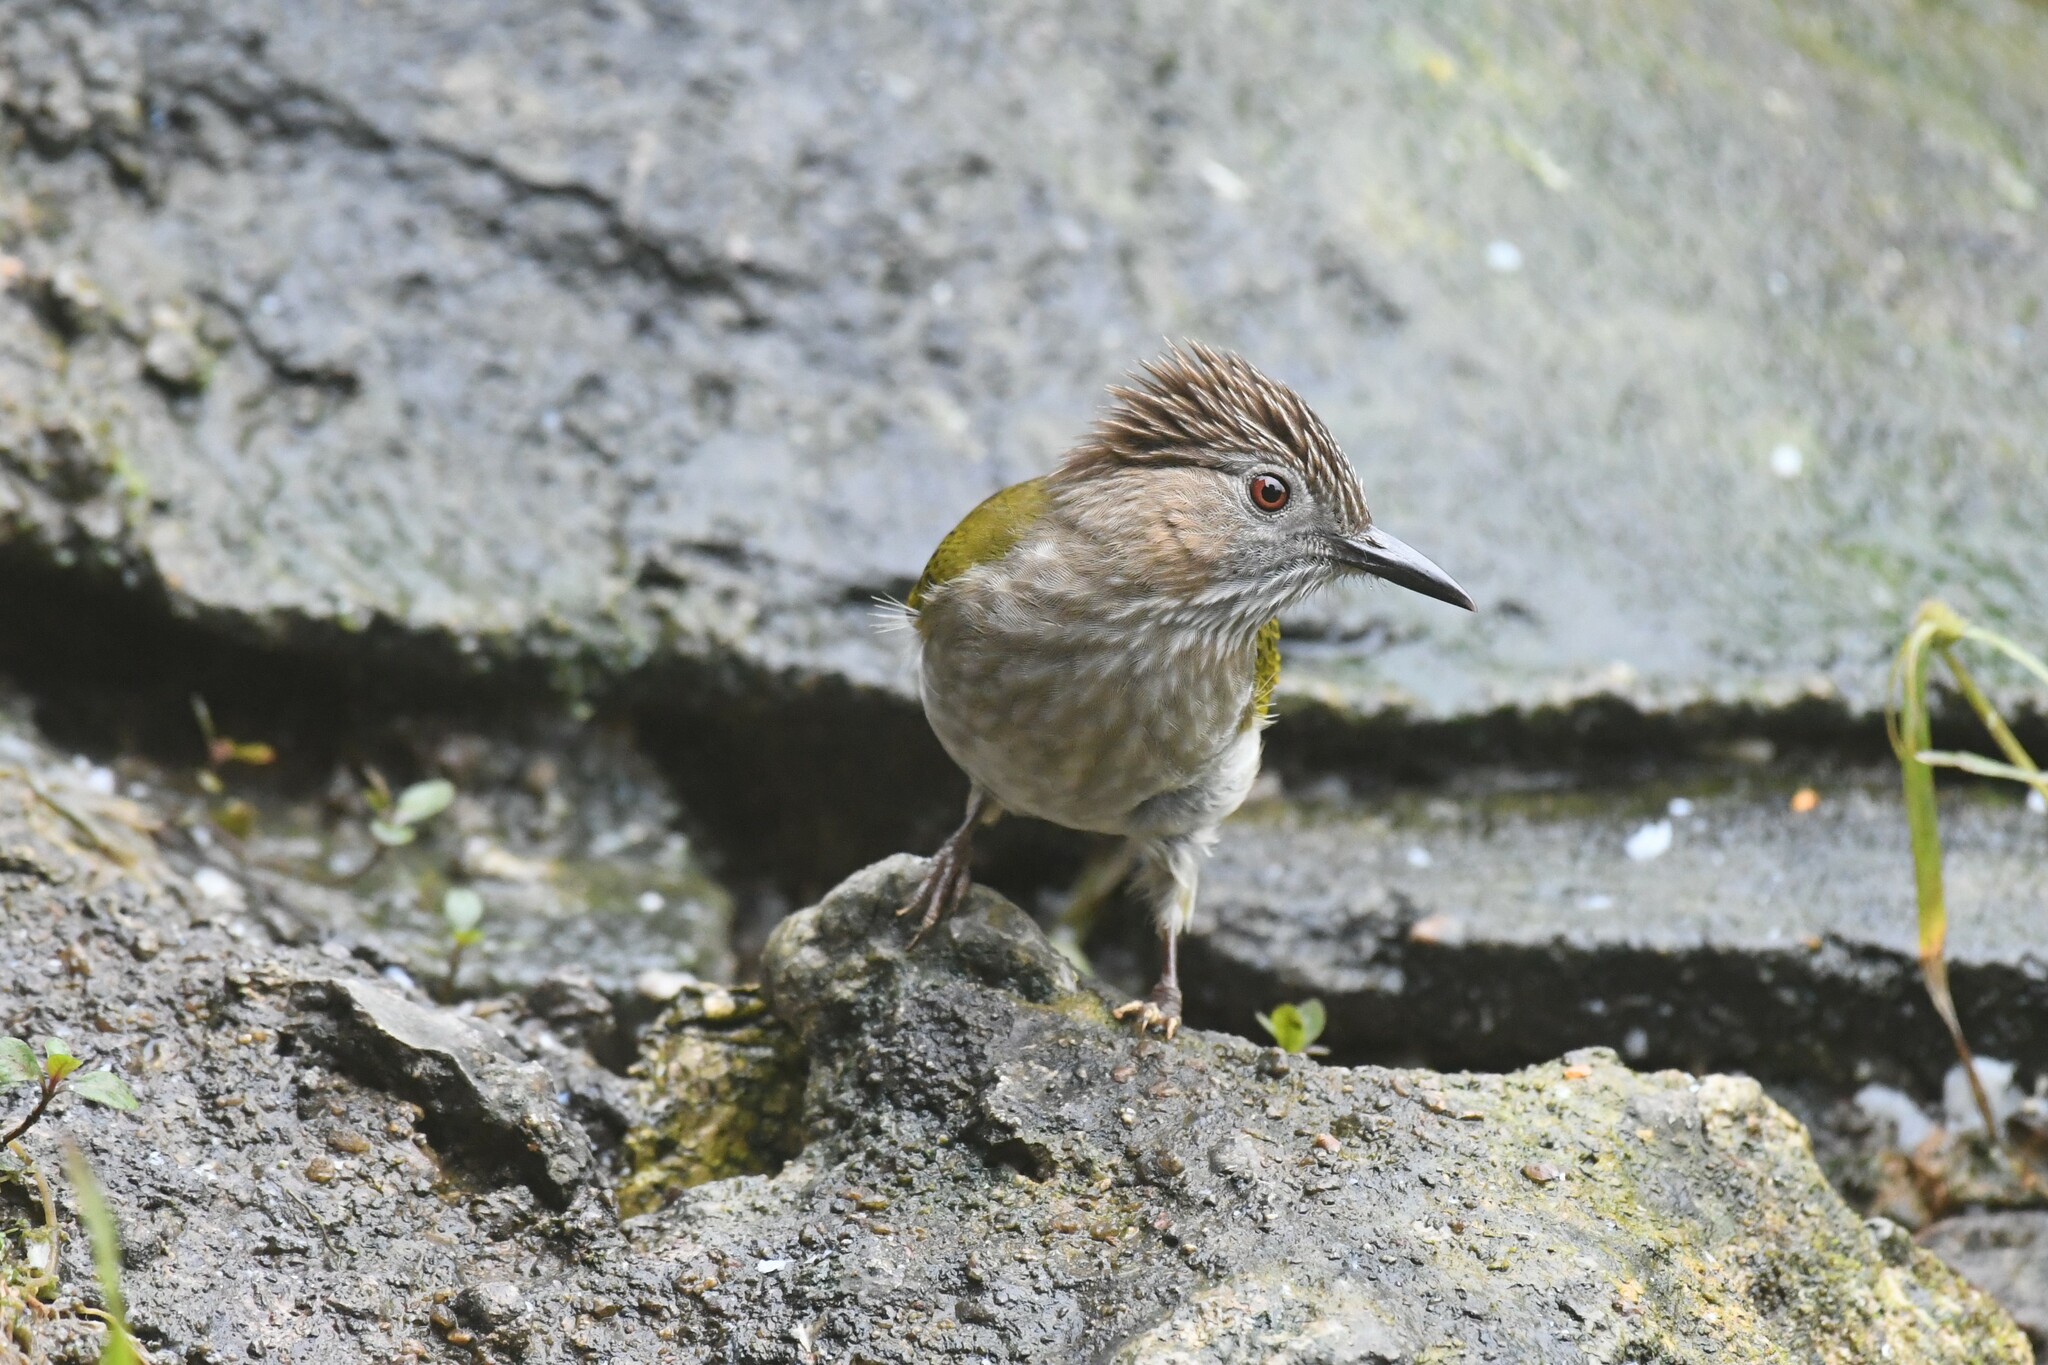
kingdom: Animalia
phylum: Chordata
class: Aves
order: Passeriformes
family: Pycnonotidae
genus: Ixos
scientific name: Ixos mcclellandii
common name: Mountain bulbul
